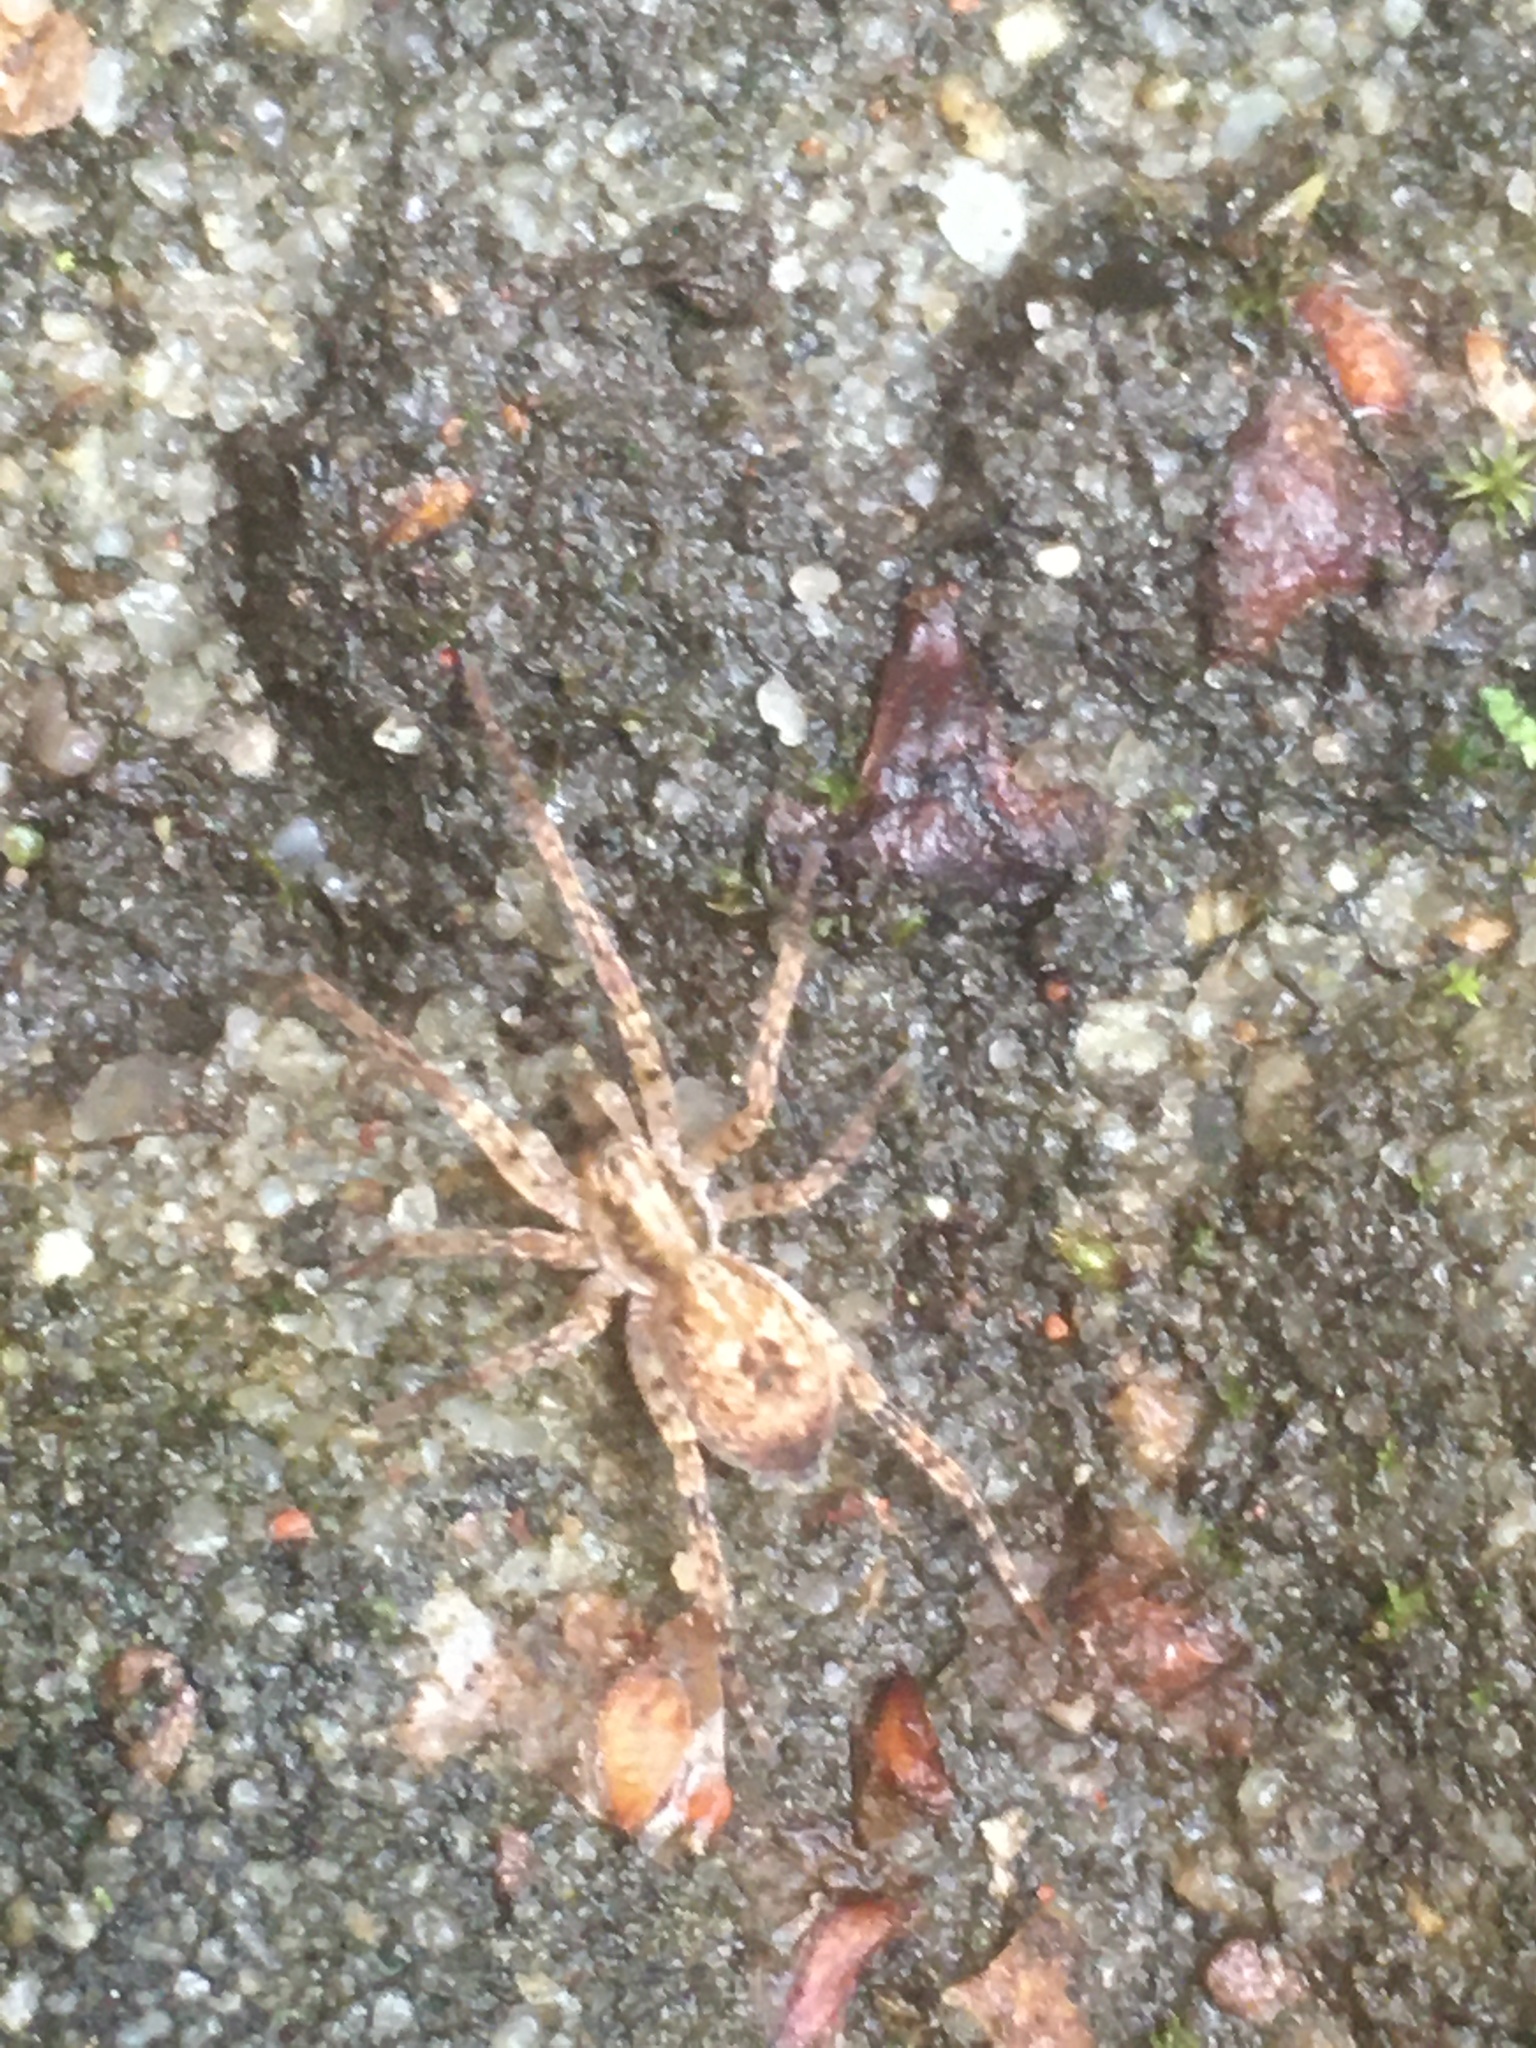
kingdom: Animalia
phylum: Arthropoda
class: Arachnida
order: Araneae
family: Anyphaenidae
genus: Anyphaena
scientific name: Anyphaena accentuata
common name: Buzzing spider
